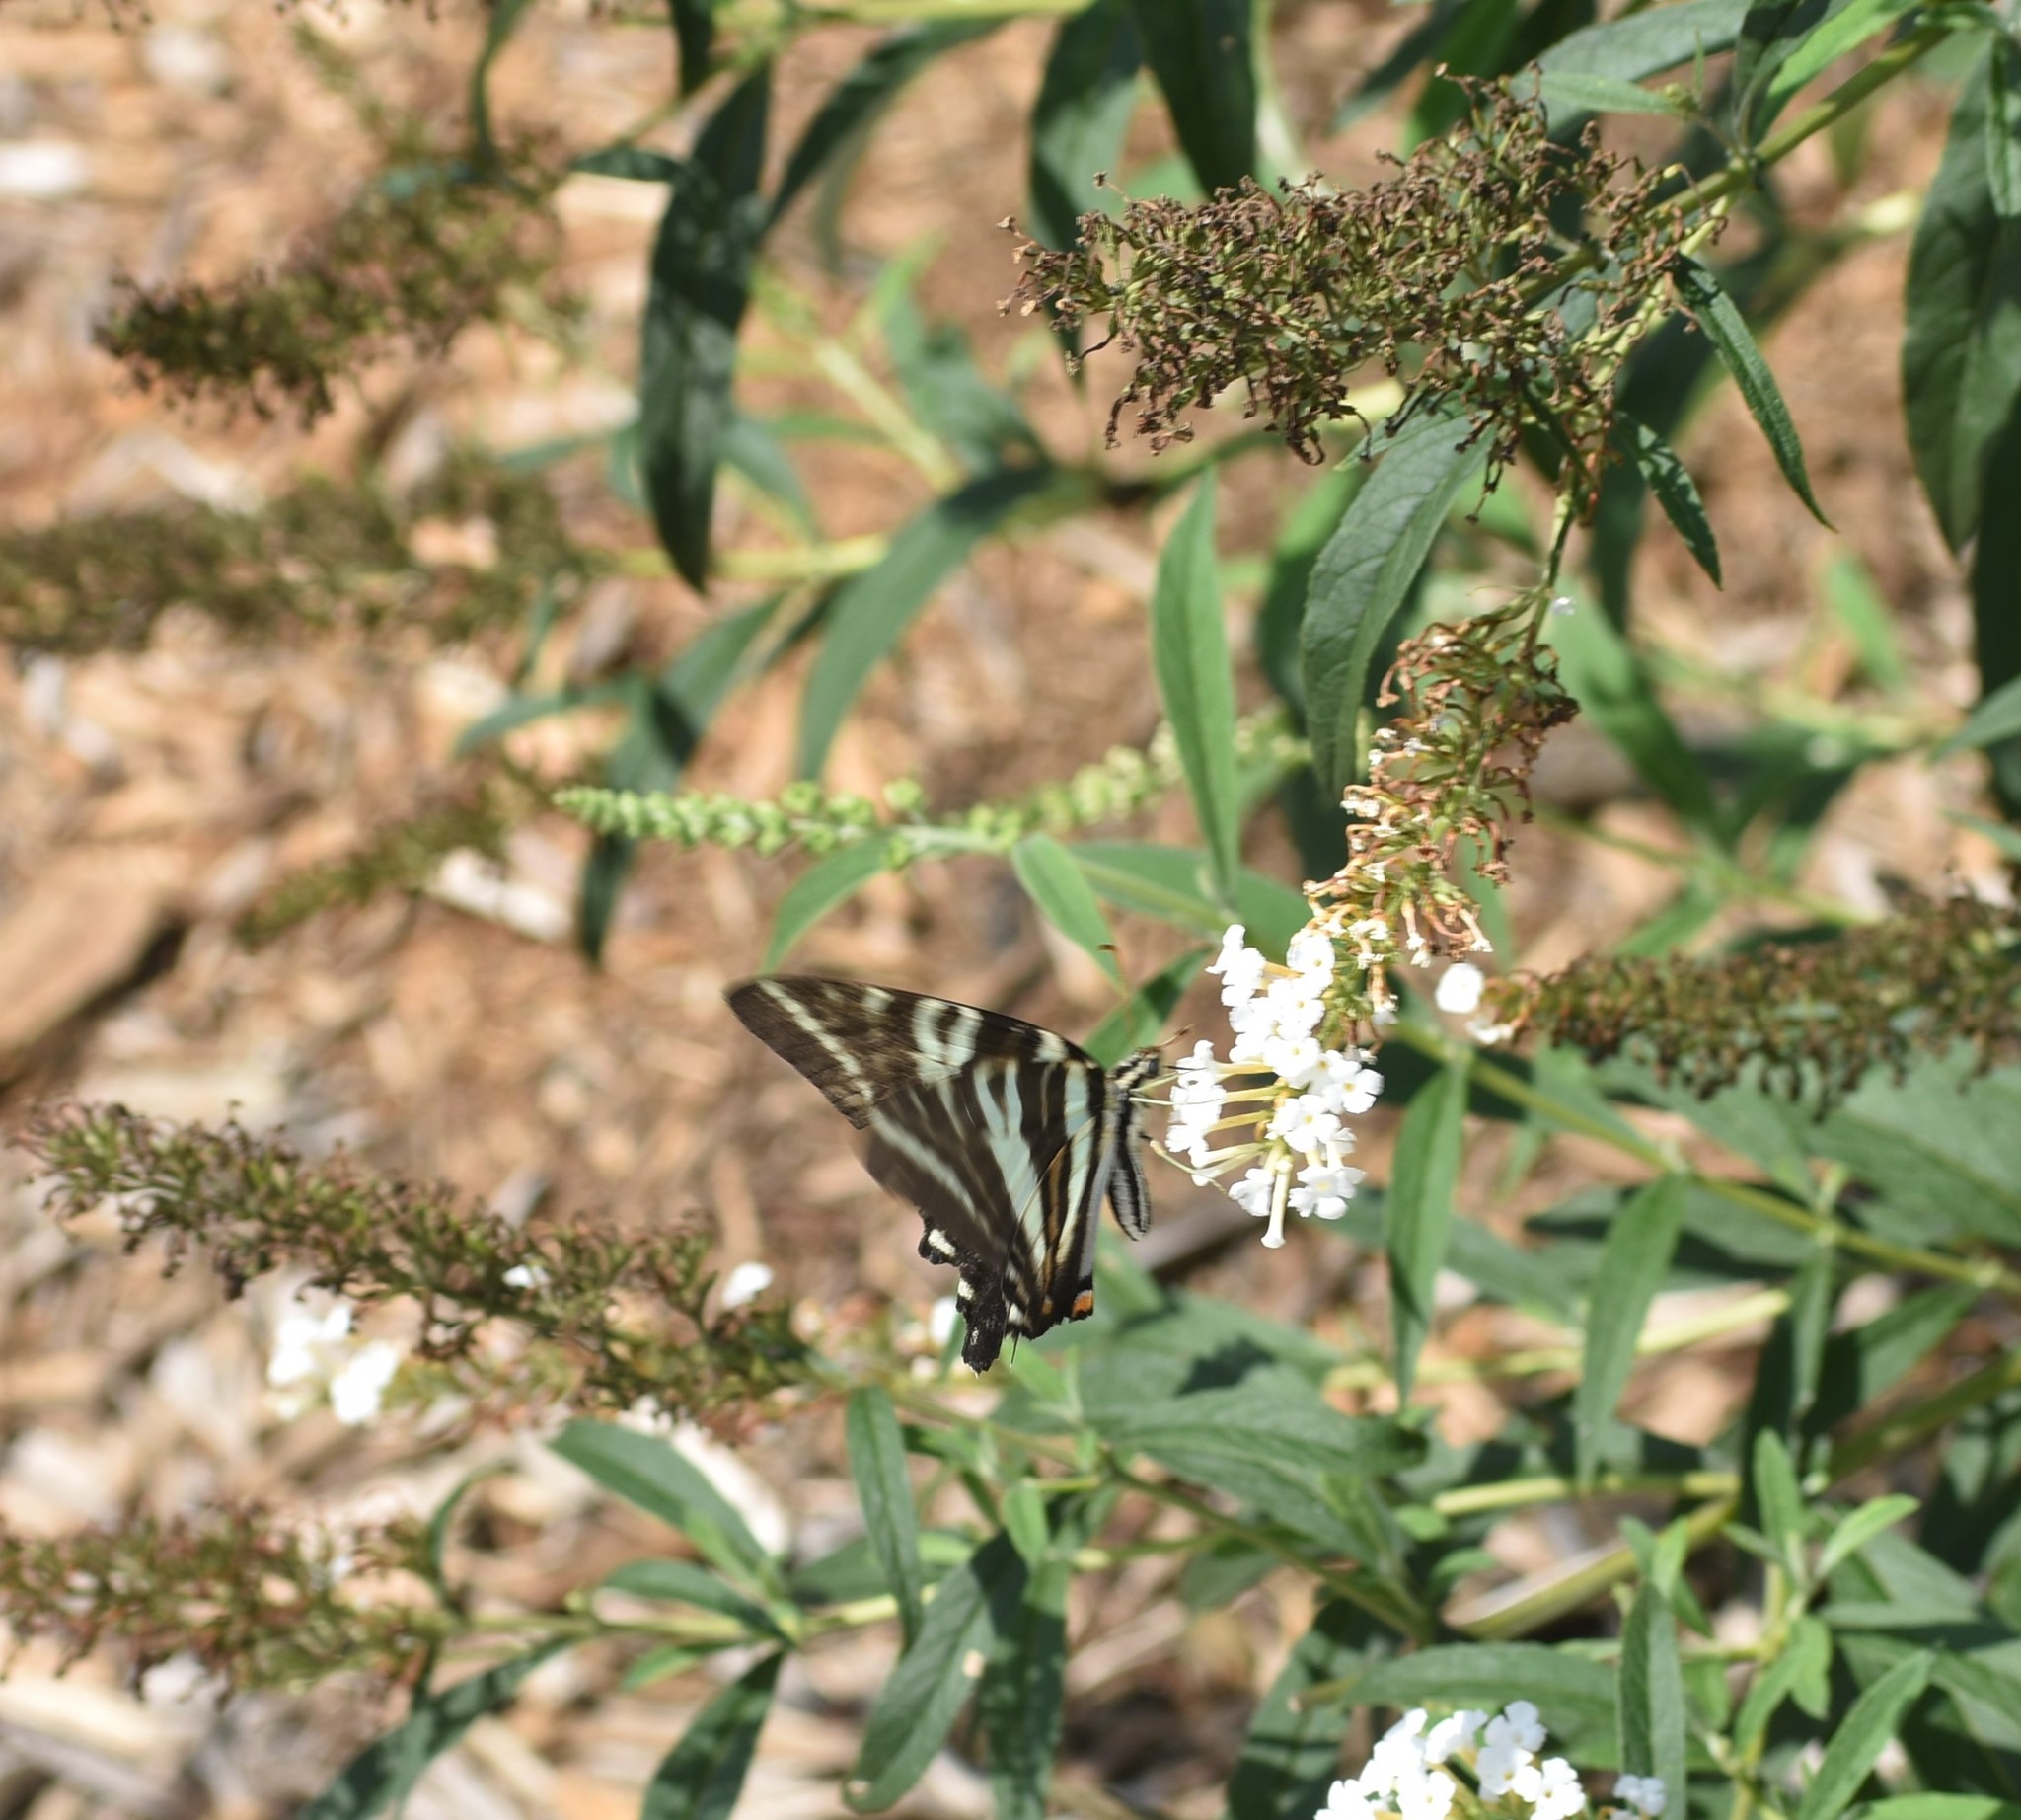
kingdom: Animalia
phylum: Arthropoda
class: Insecta
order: Lepidoptera
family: Papilionidae
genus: Protographium
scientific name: Protographium marcellus
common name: Zebra swallowtail
